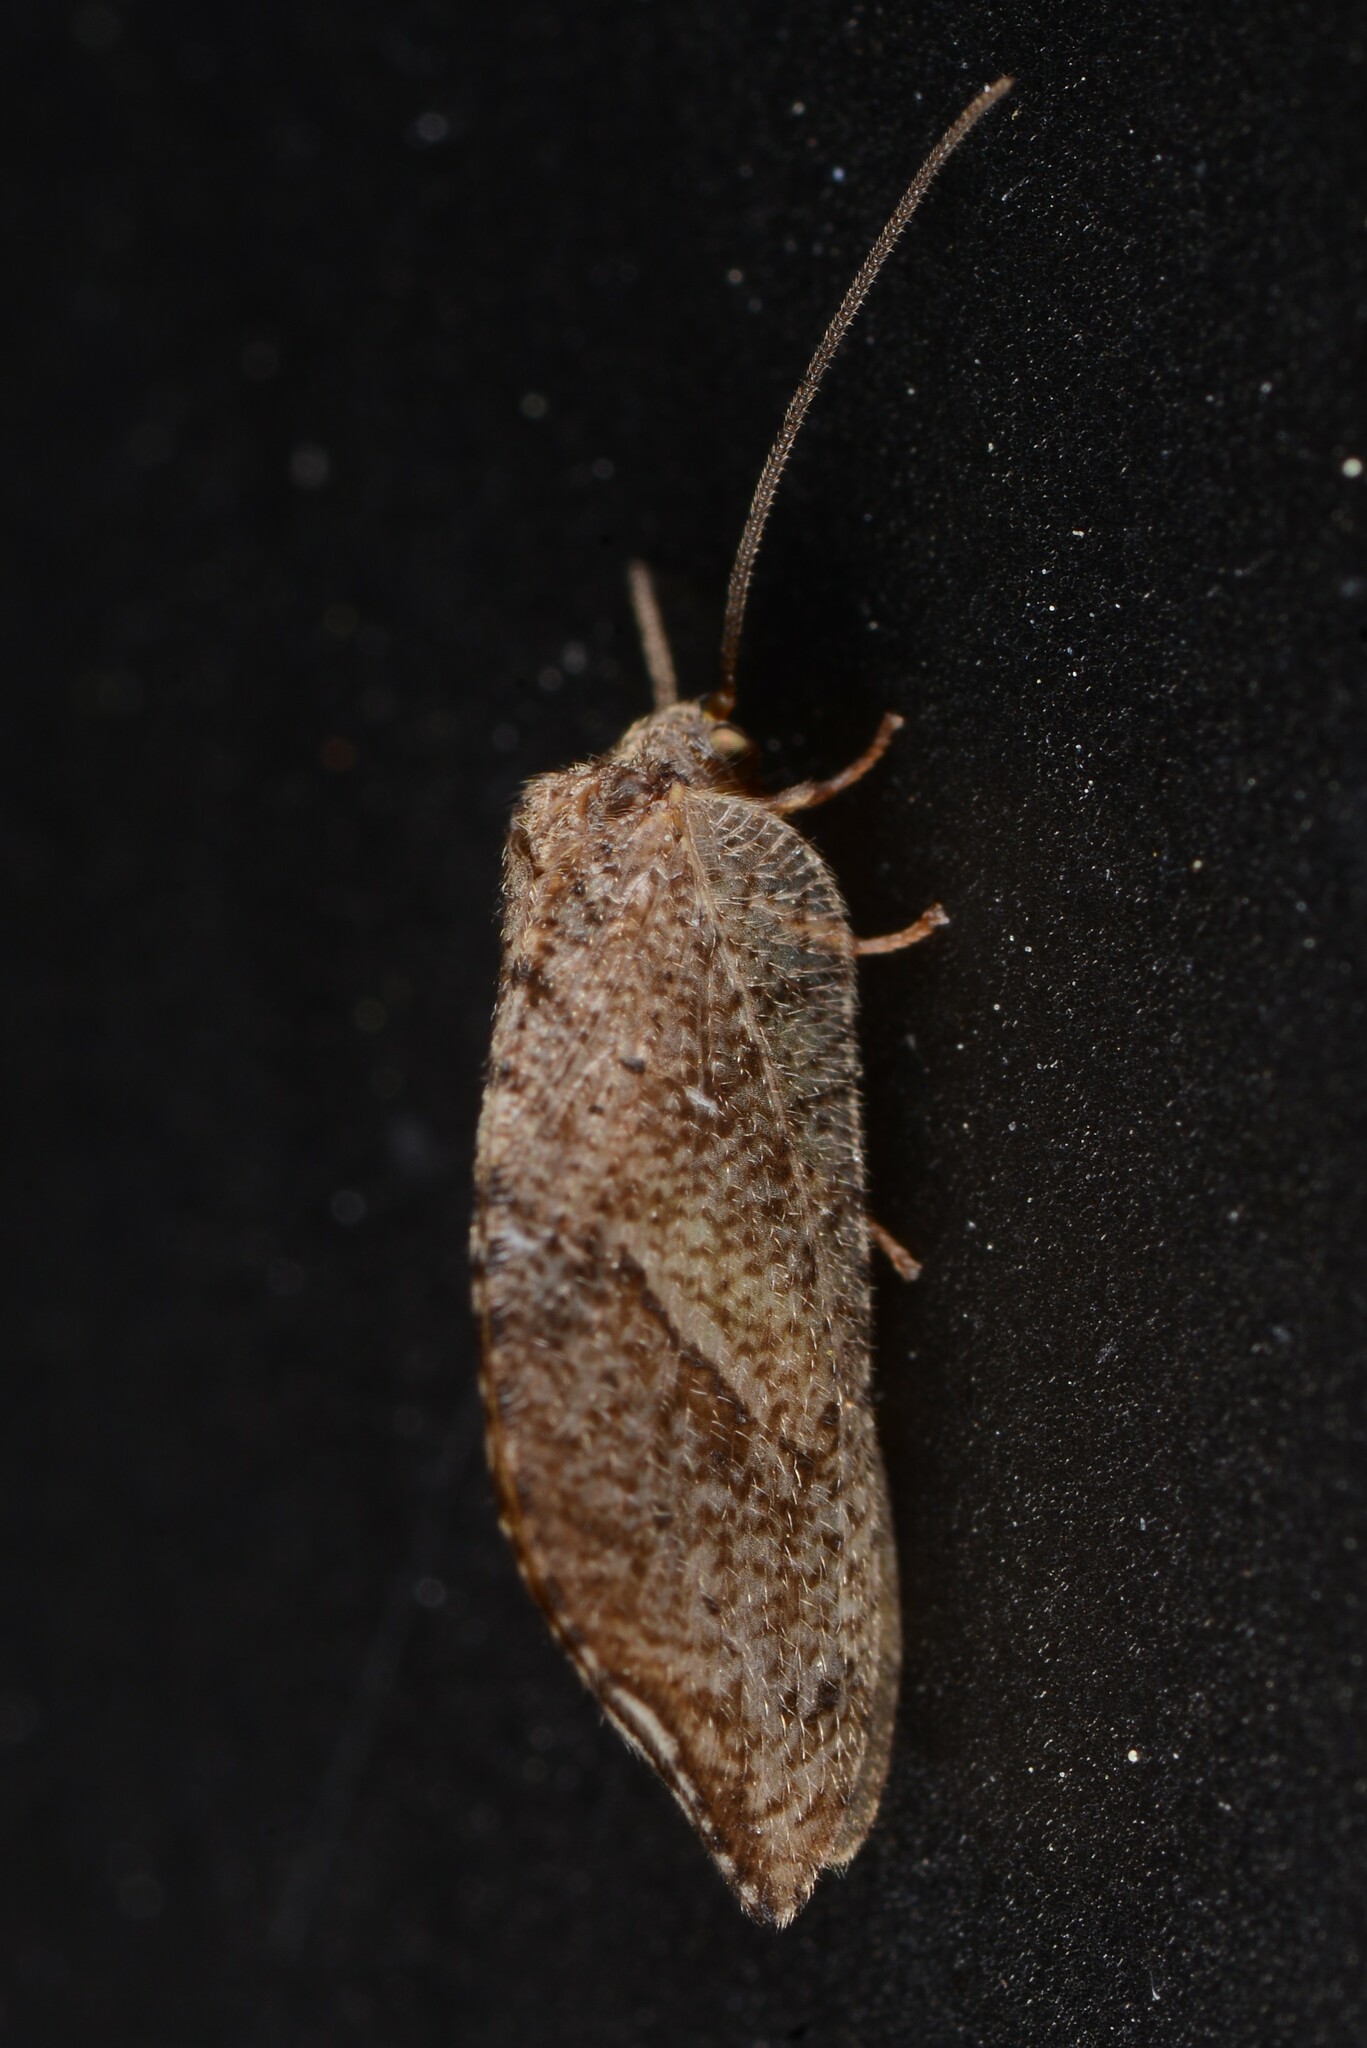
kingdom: Animalia
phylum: Arthropoda
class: Insecta
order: Neuroptera
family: Hemerobiidae
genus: Drepanacra
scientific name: Drepanacra binocula
